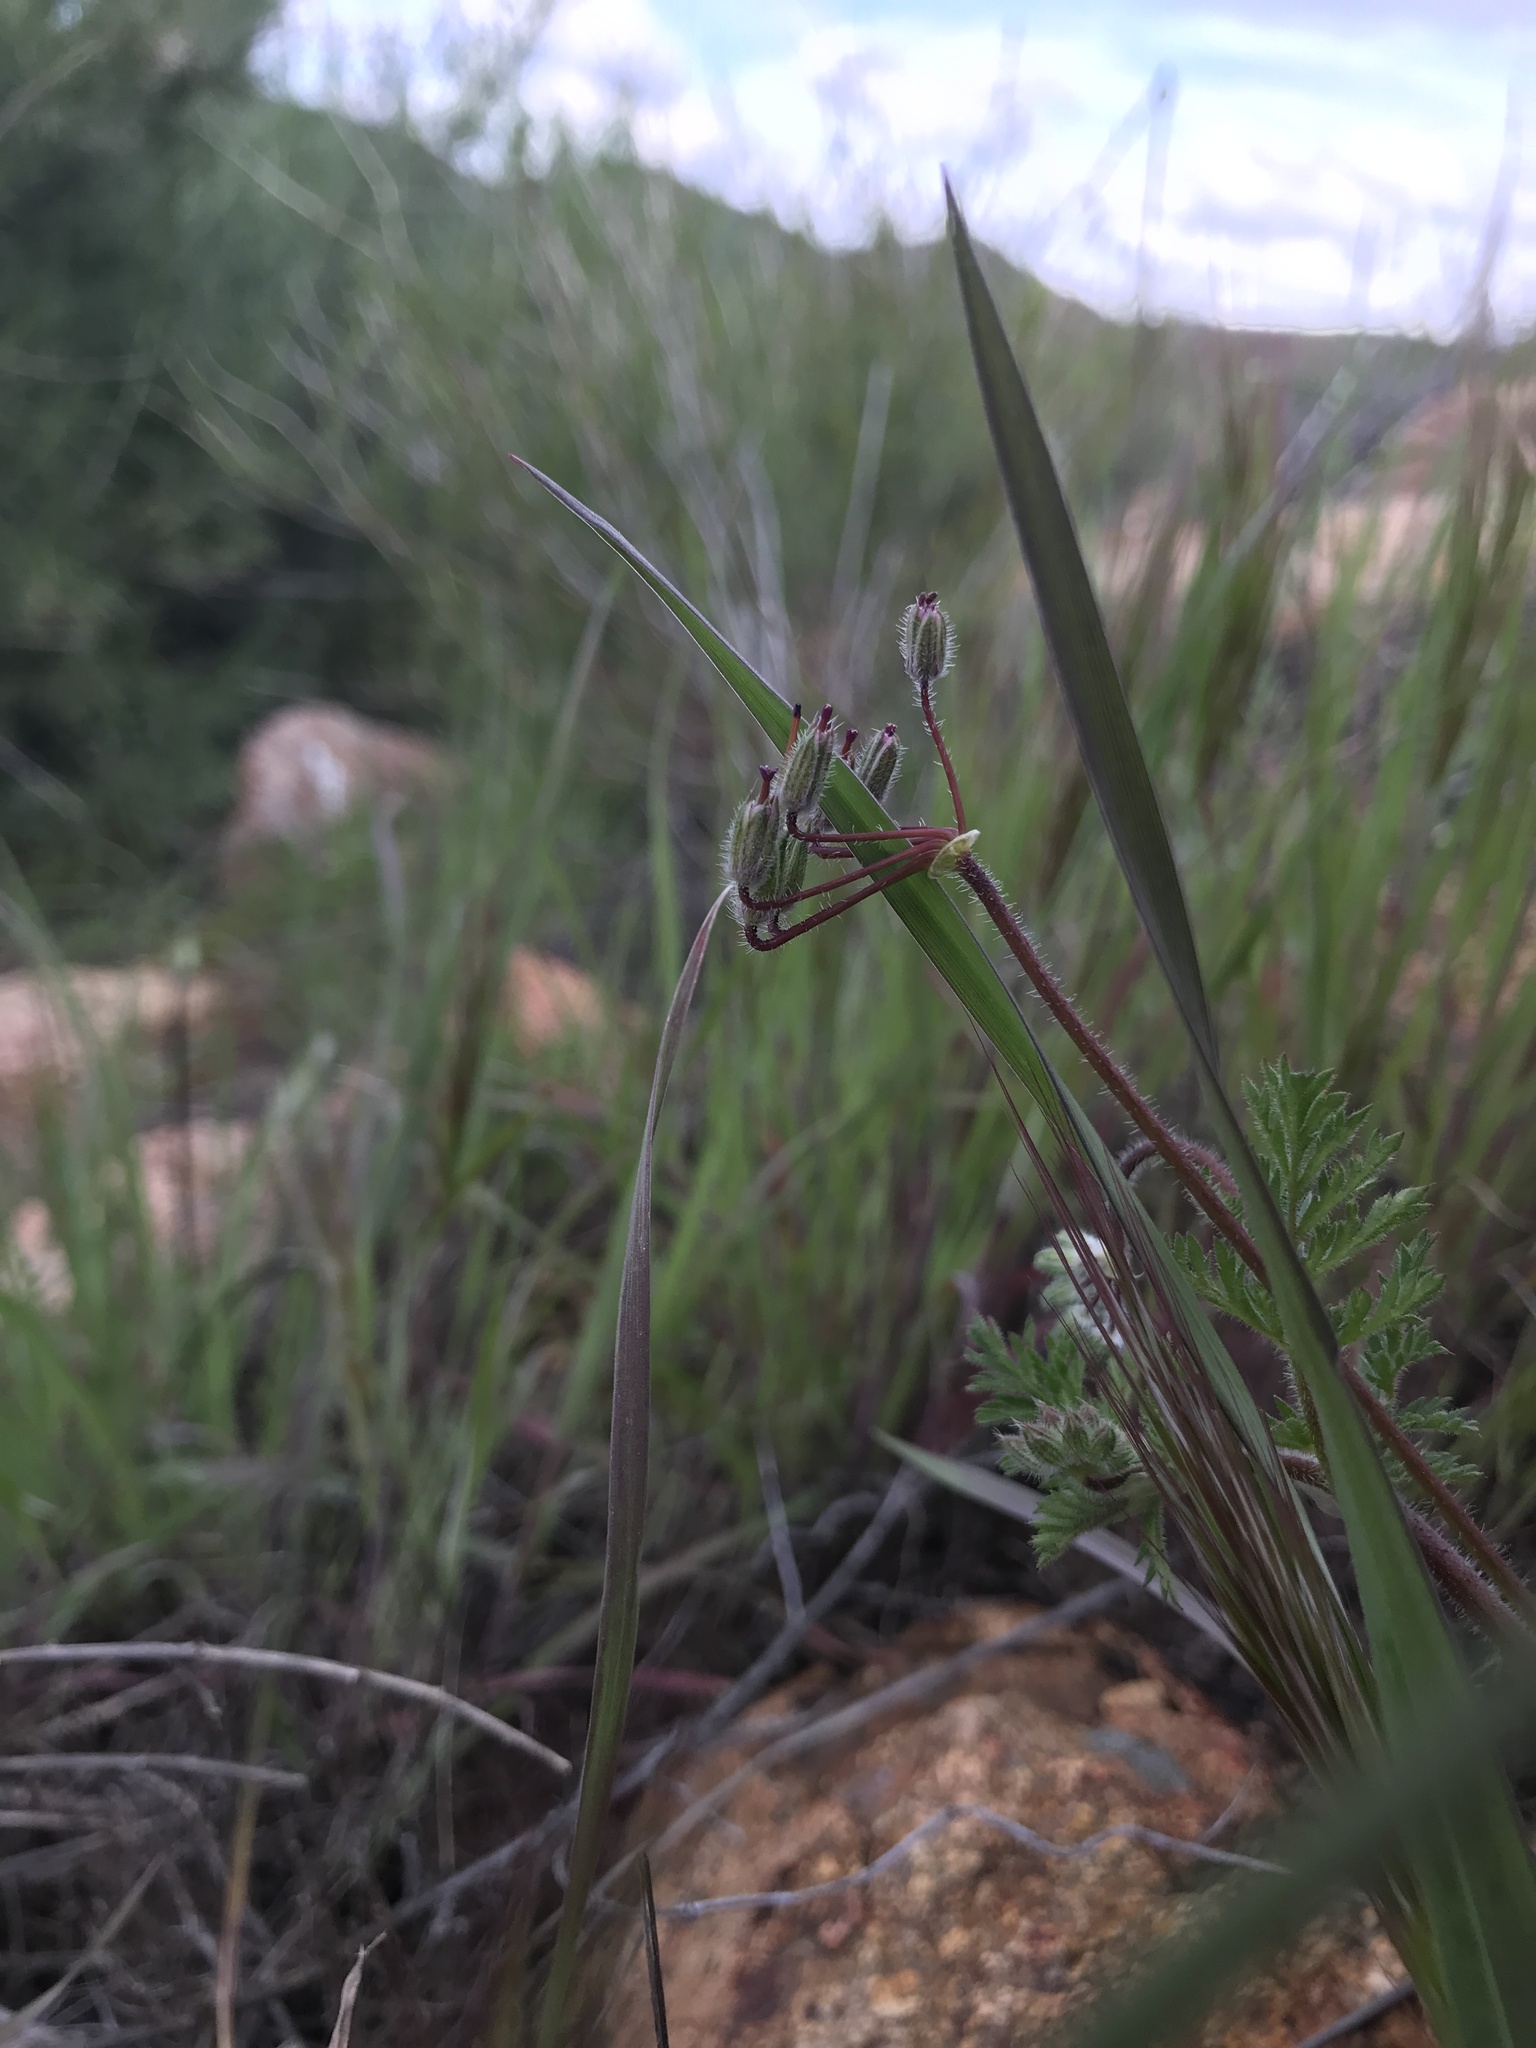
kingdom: Plantae
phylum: Tracheophyta
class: Magnoliopsida
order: Geraniales
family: Geraniaceae
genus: Erodium
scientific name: Erodium cicutarium
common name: Common stork's-bill
